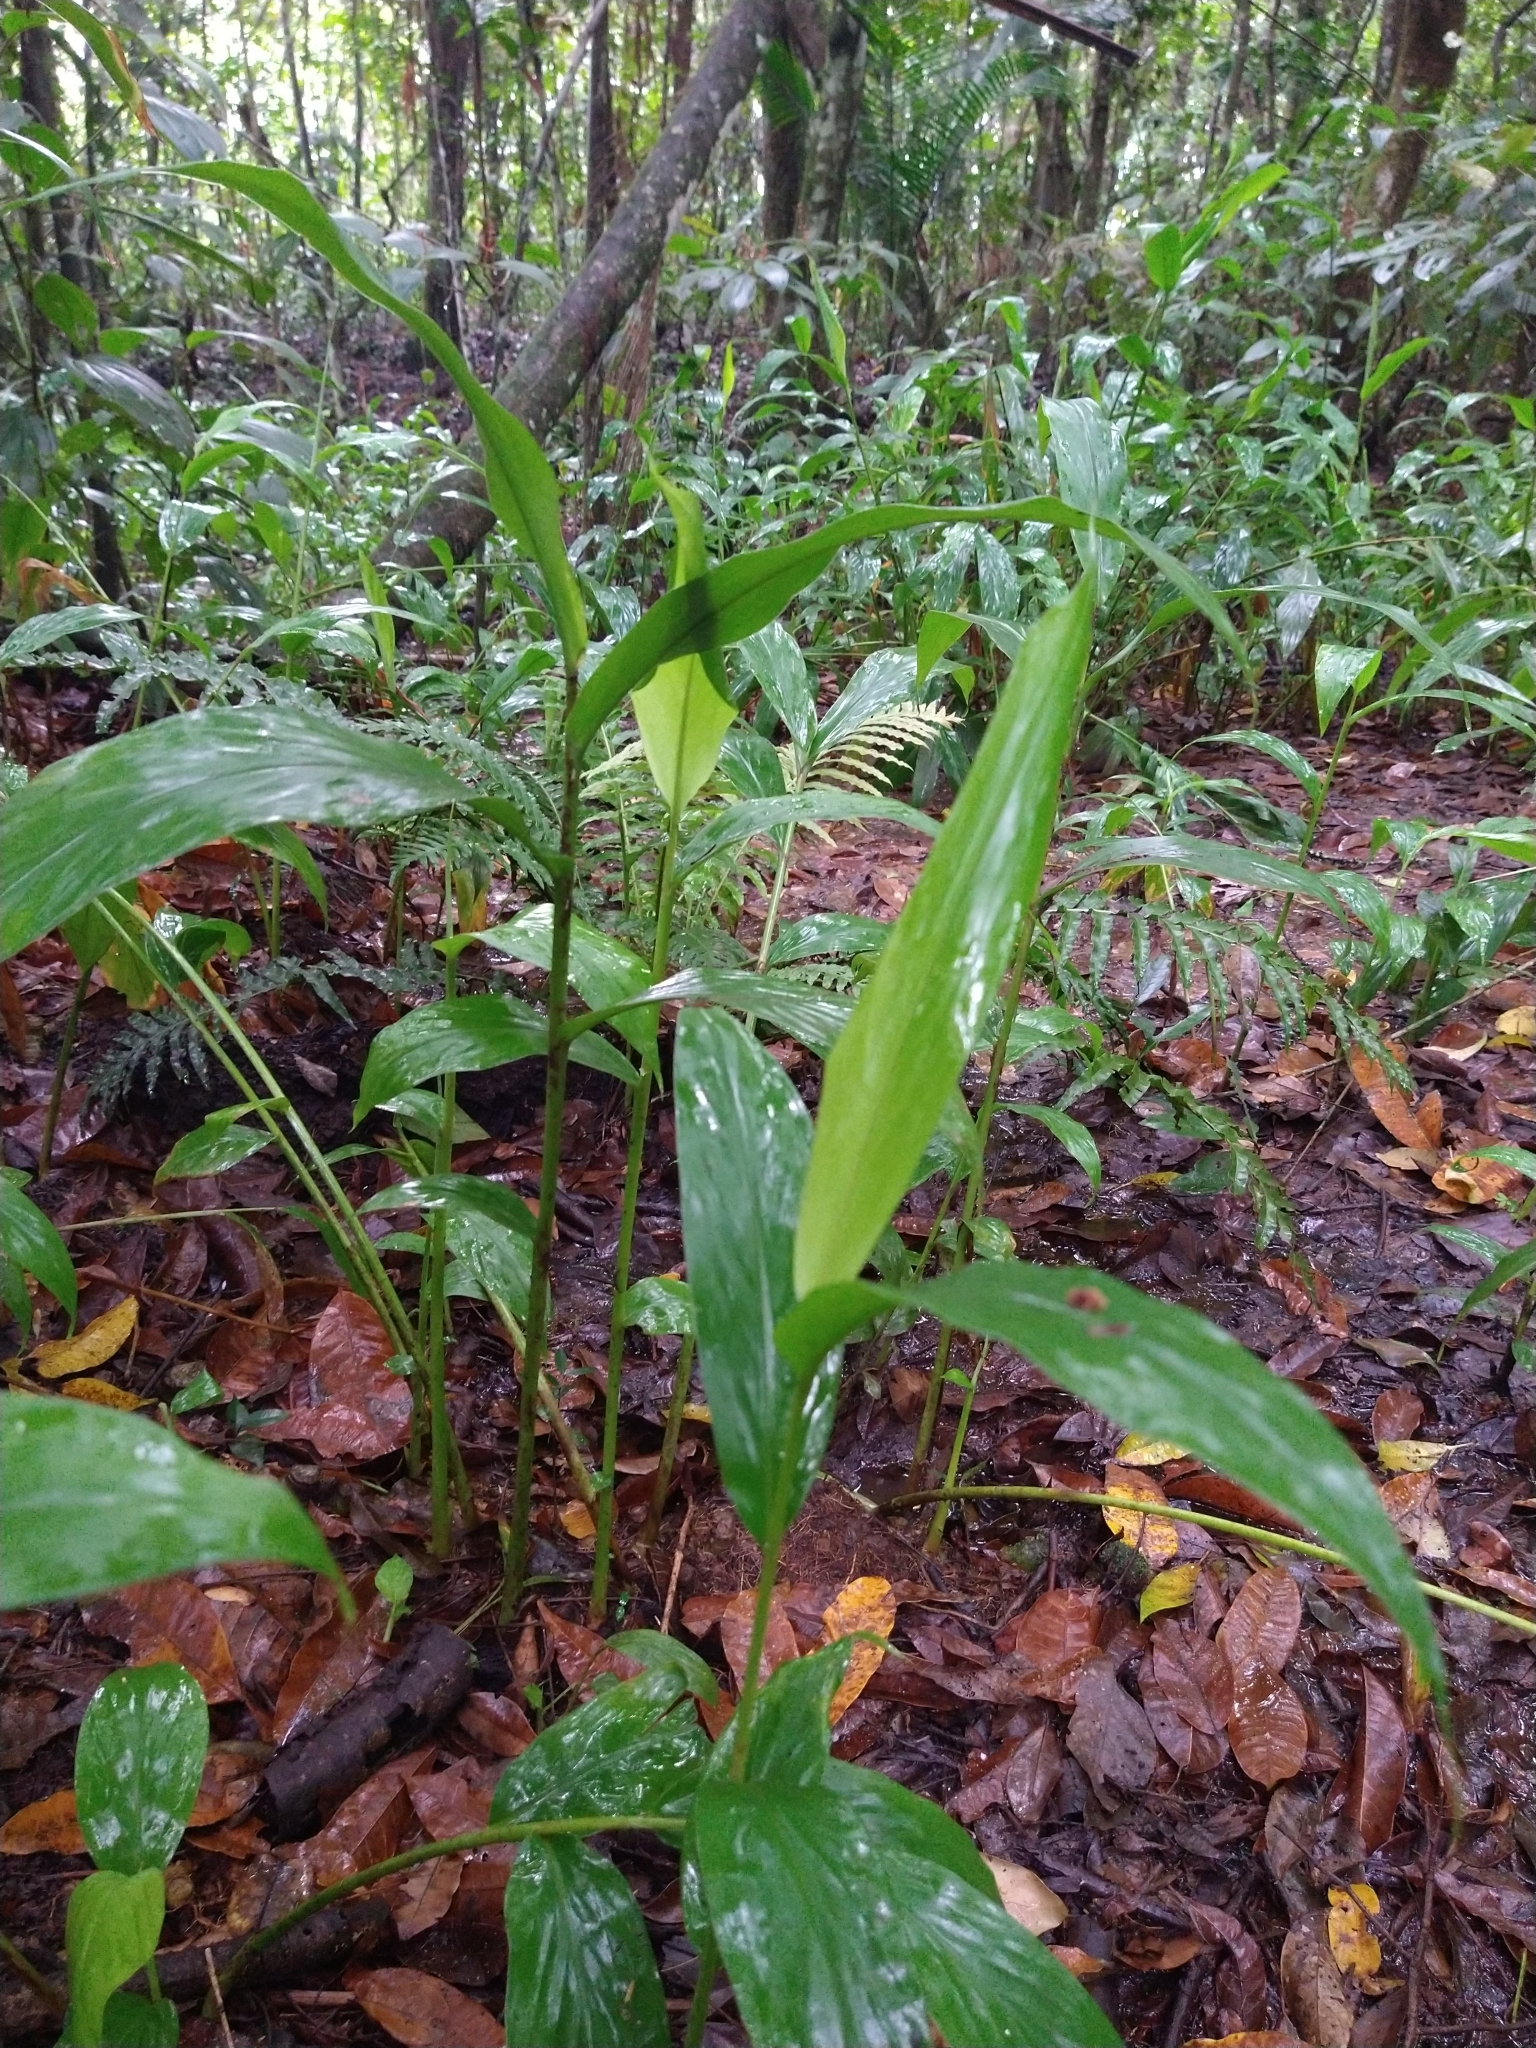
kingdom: Plantae
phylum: Tracheophyta
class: Liliopsida
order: Zingiberales
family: Zingiberaceae
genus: Hedychium
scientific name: Hedychium coronarium
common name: White garland-lily
